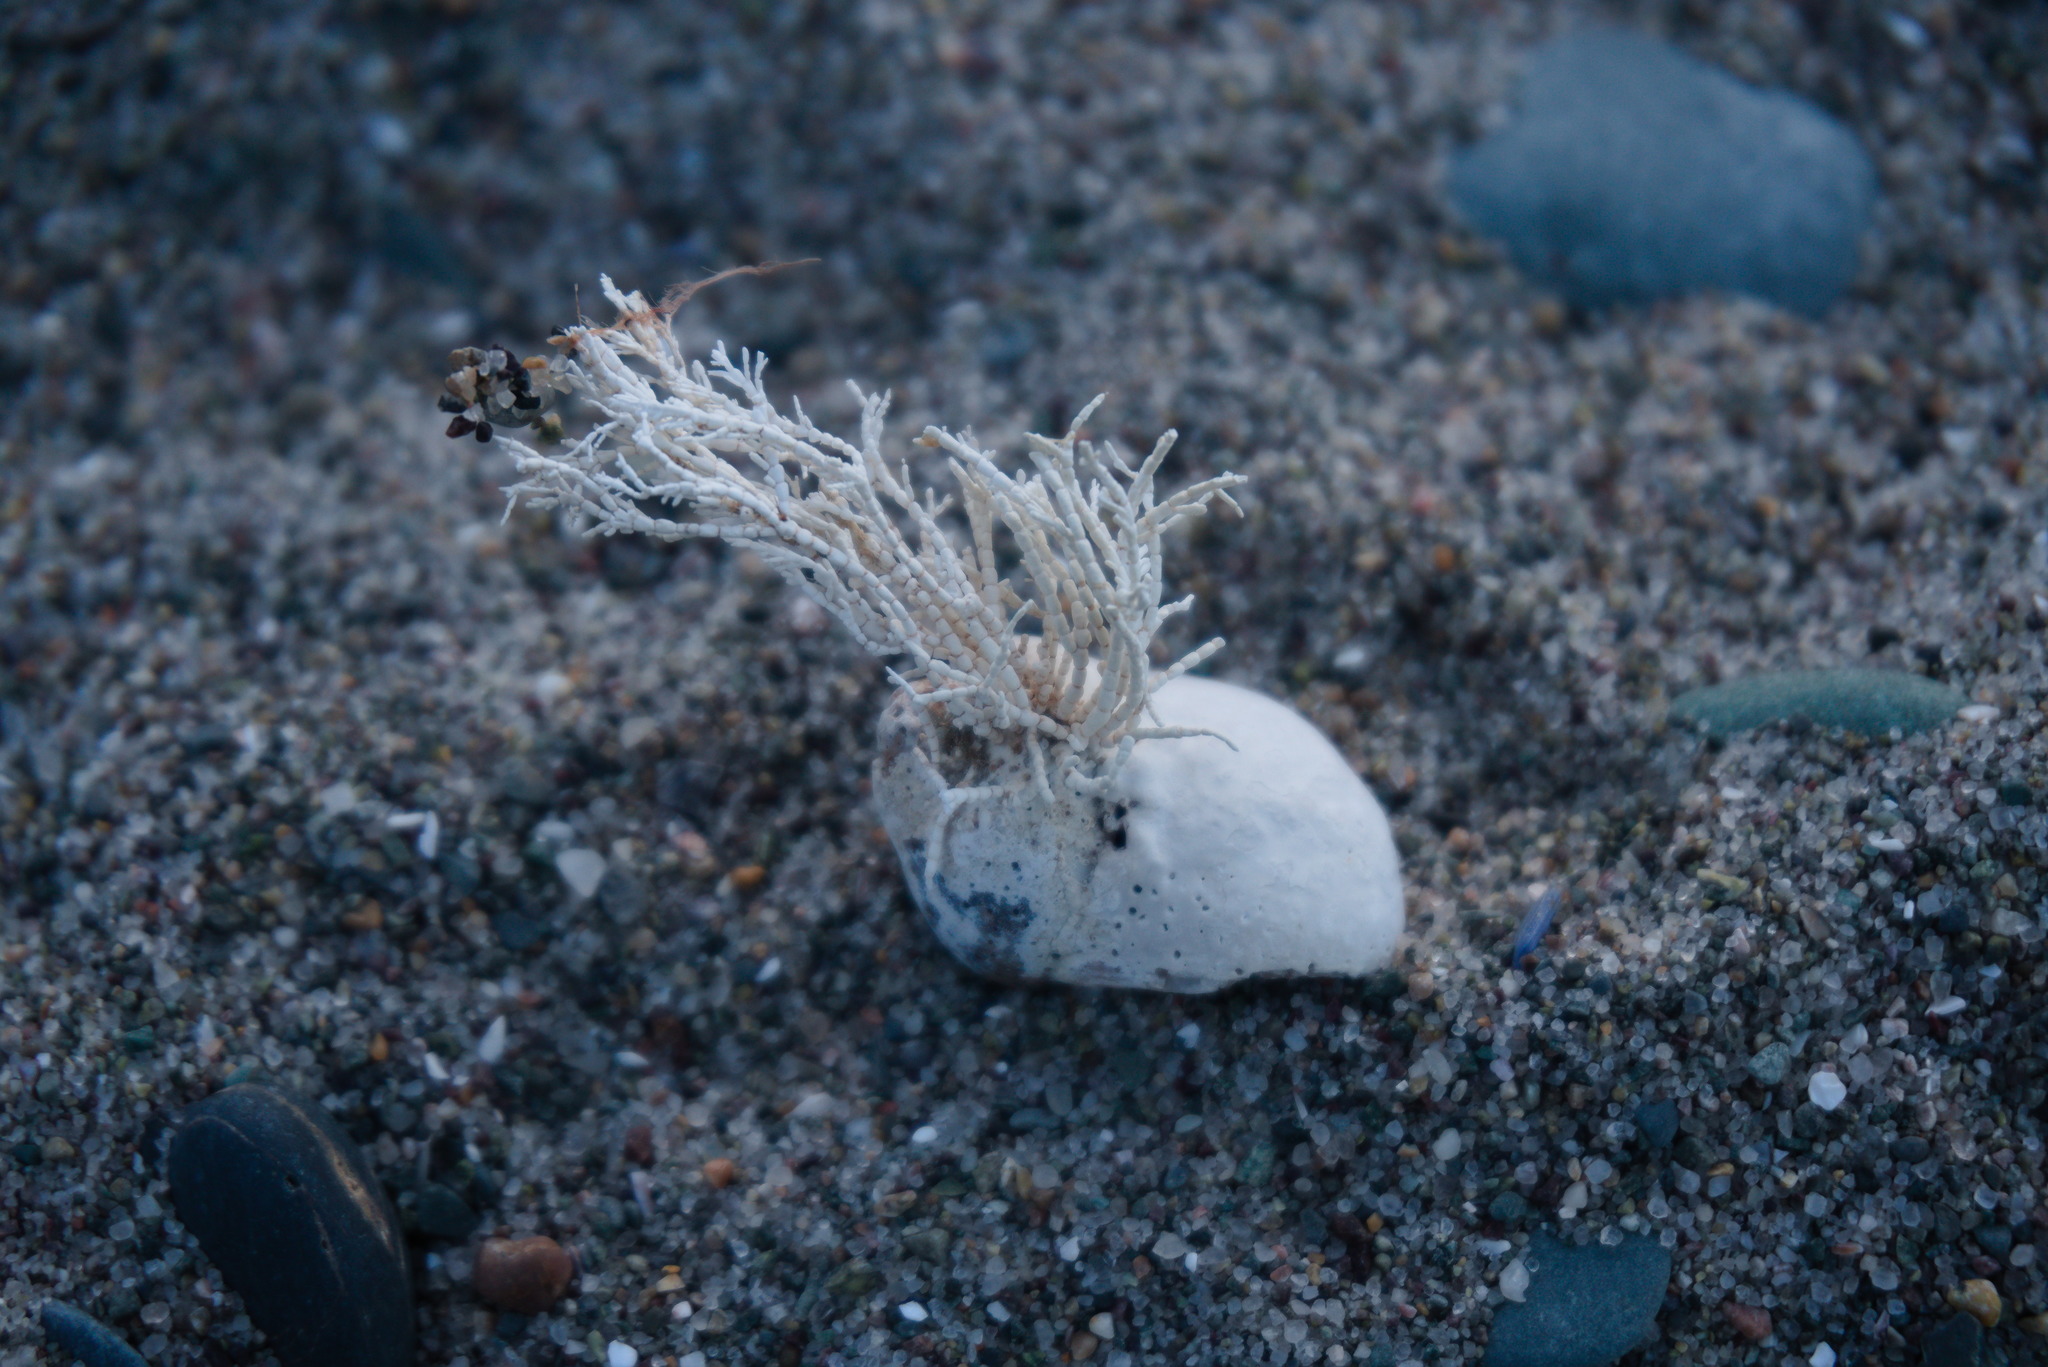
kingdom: Plantae
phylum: Rhodophyta
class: Florideophyceae
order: Corallinales
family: Corallinaceae
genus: Corallina
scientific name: Corallina officinalis
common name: Coral weed
